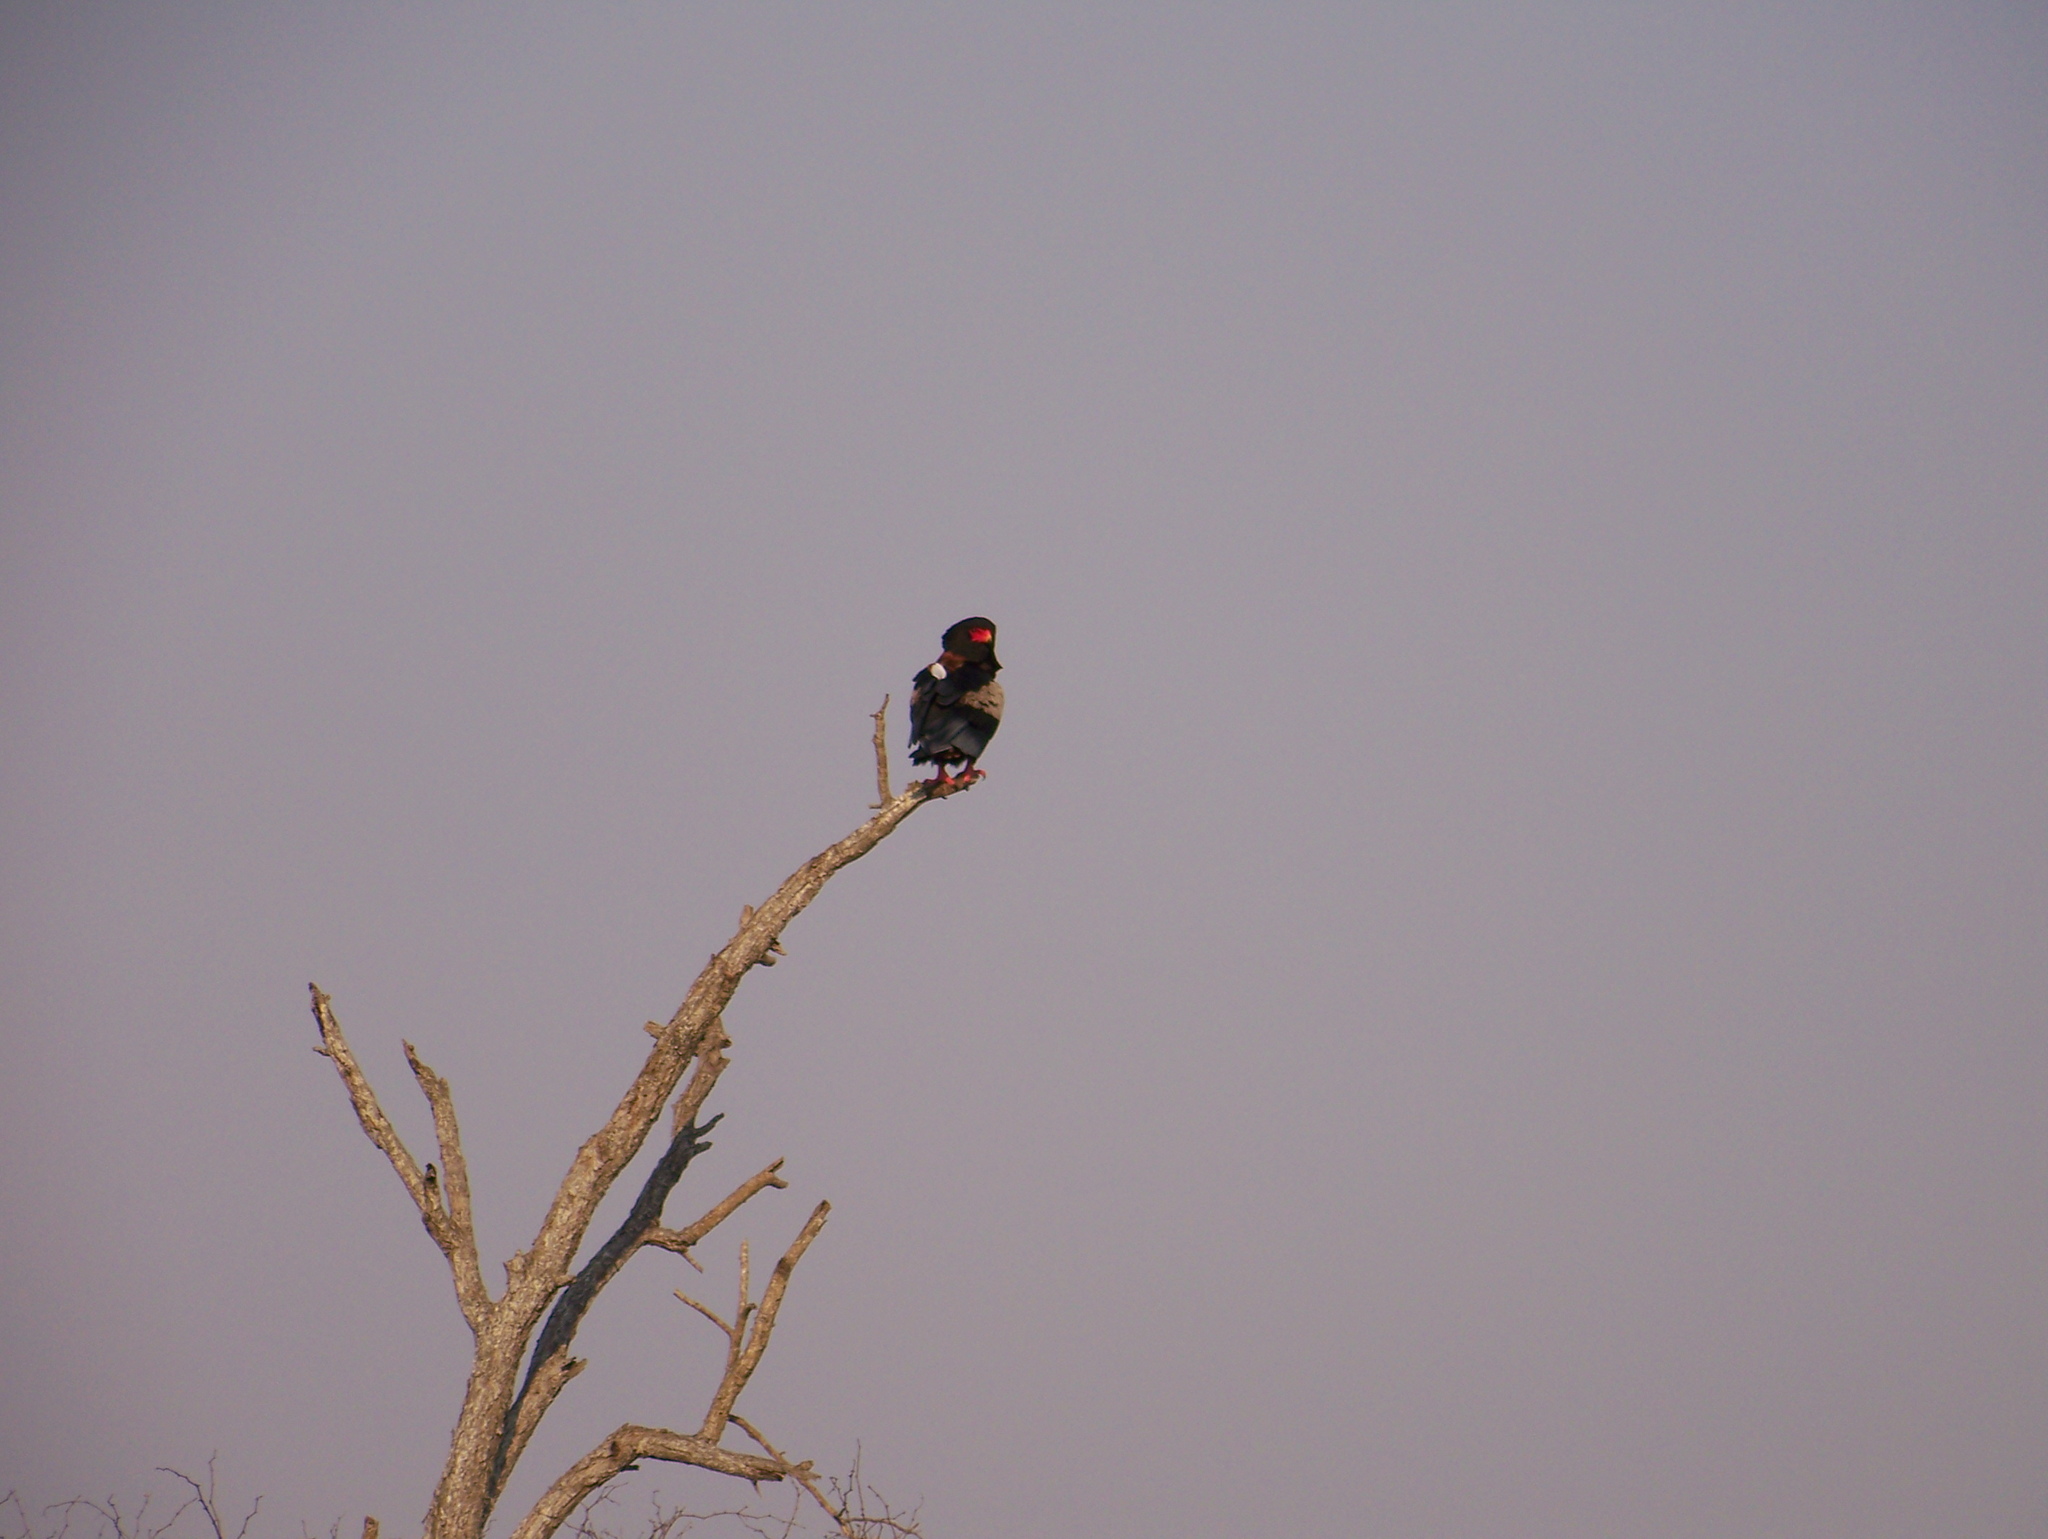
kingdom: Animalia
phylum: Chordata
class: Aves
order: Accipitriformes
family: Accipitridae
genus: Terathopius
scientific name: Terathopius ecaudatus
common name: Bateleur
